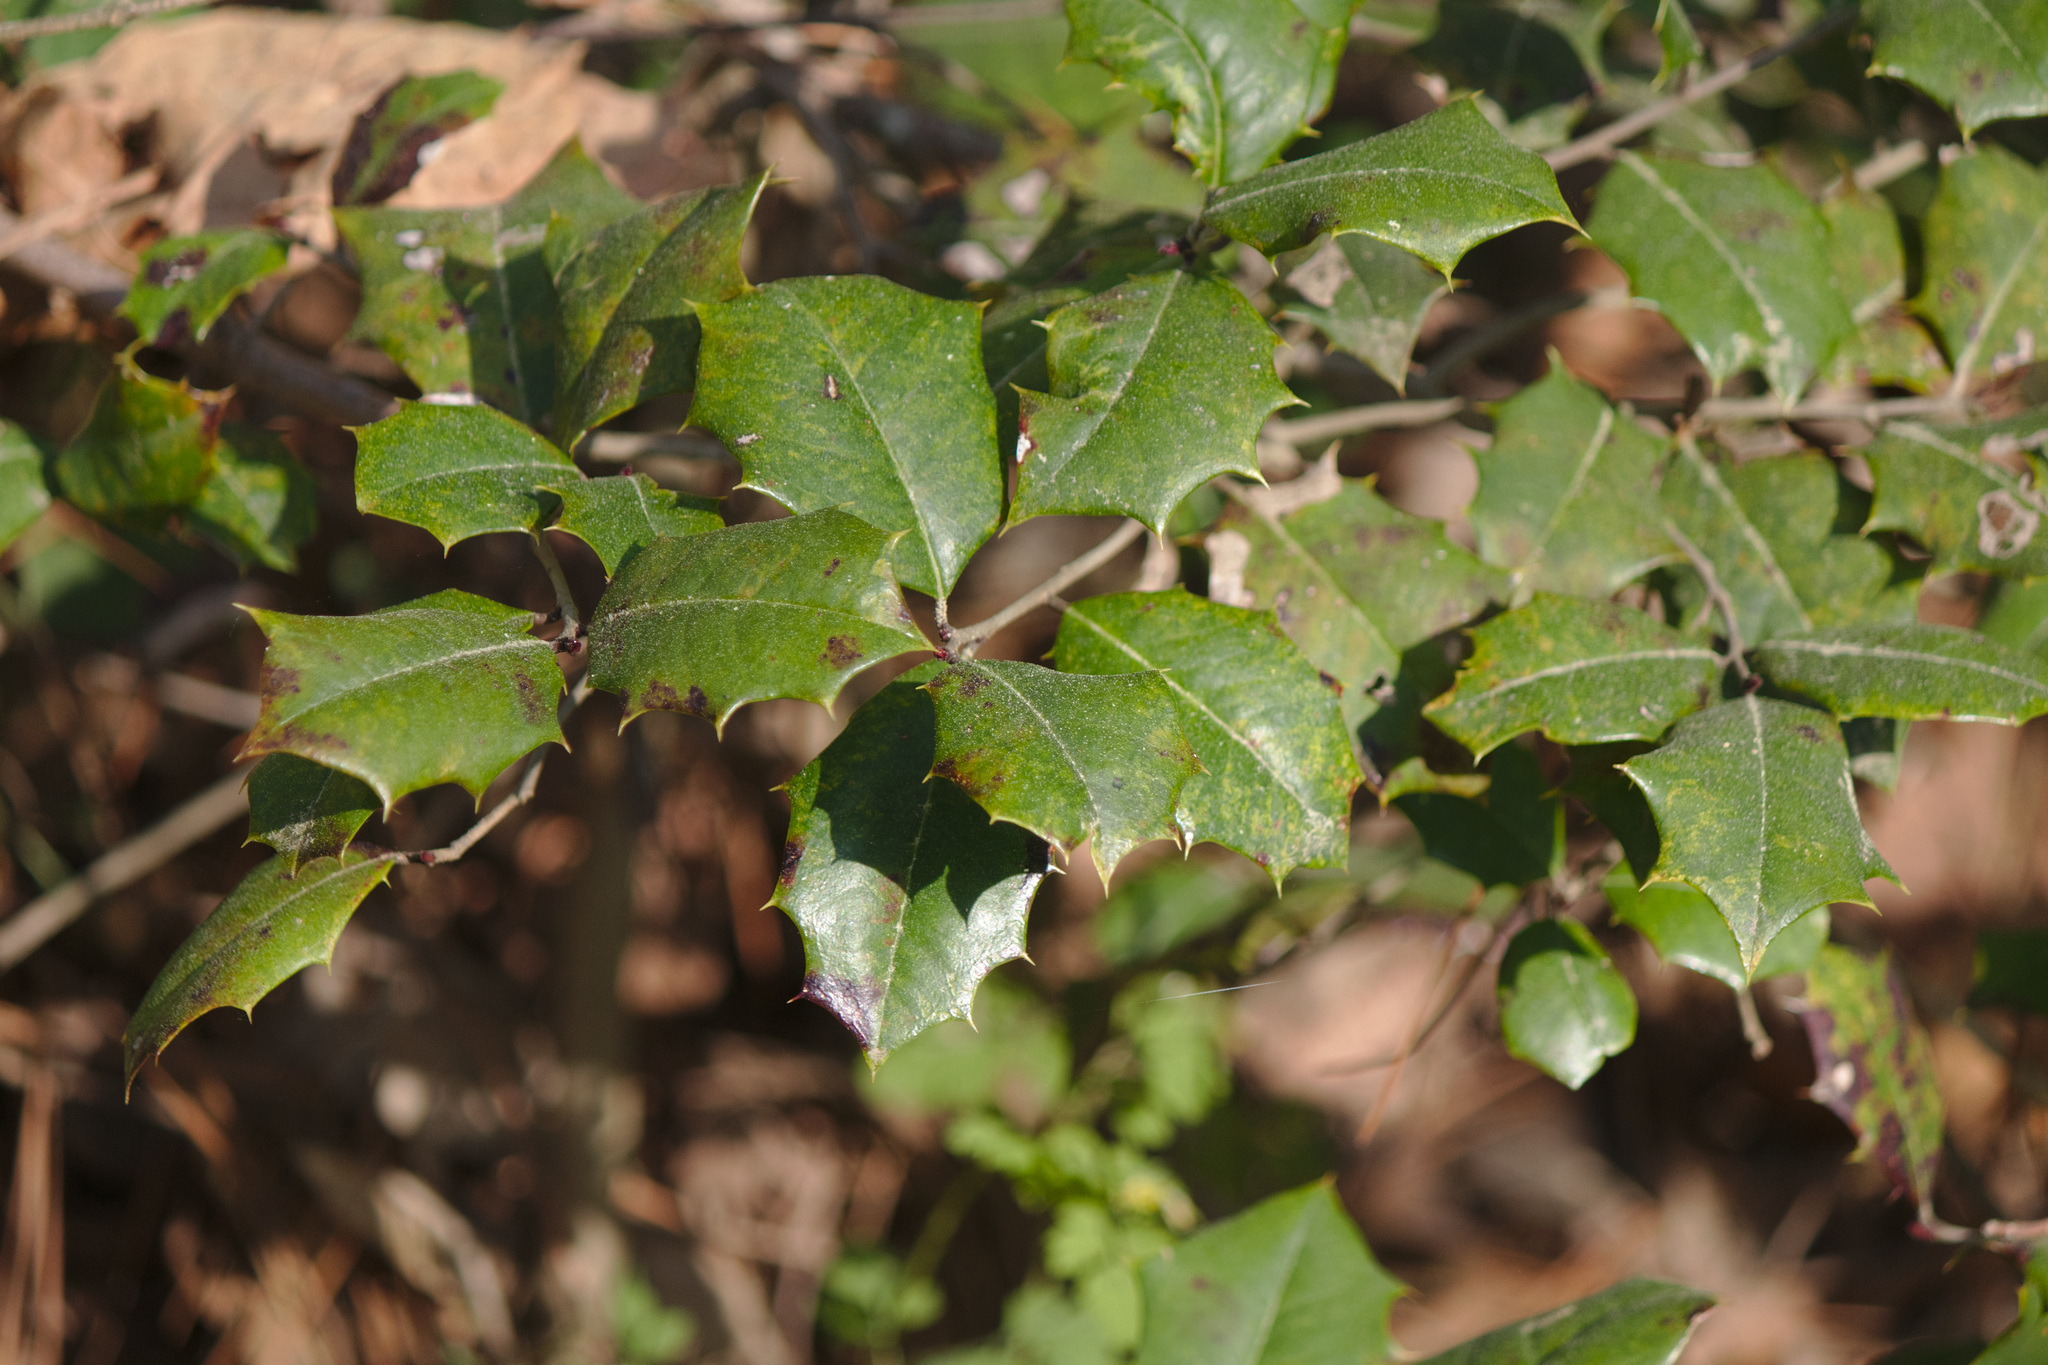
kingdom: Plantae
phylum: Tracheophyta
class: Magnoliopsida
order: Aquifoliales
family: Aquifoliaceae
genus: Ilex
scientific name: Ilex opaca
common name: American holly
